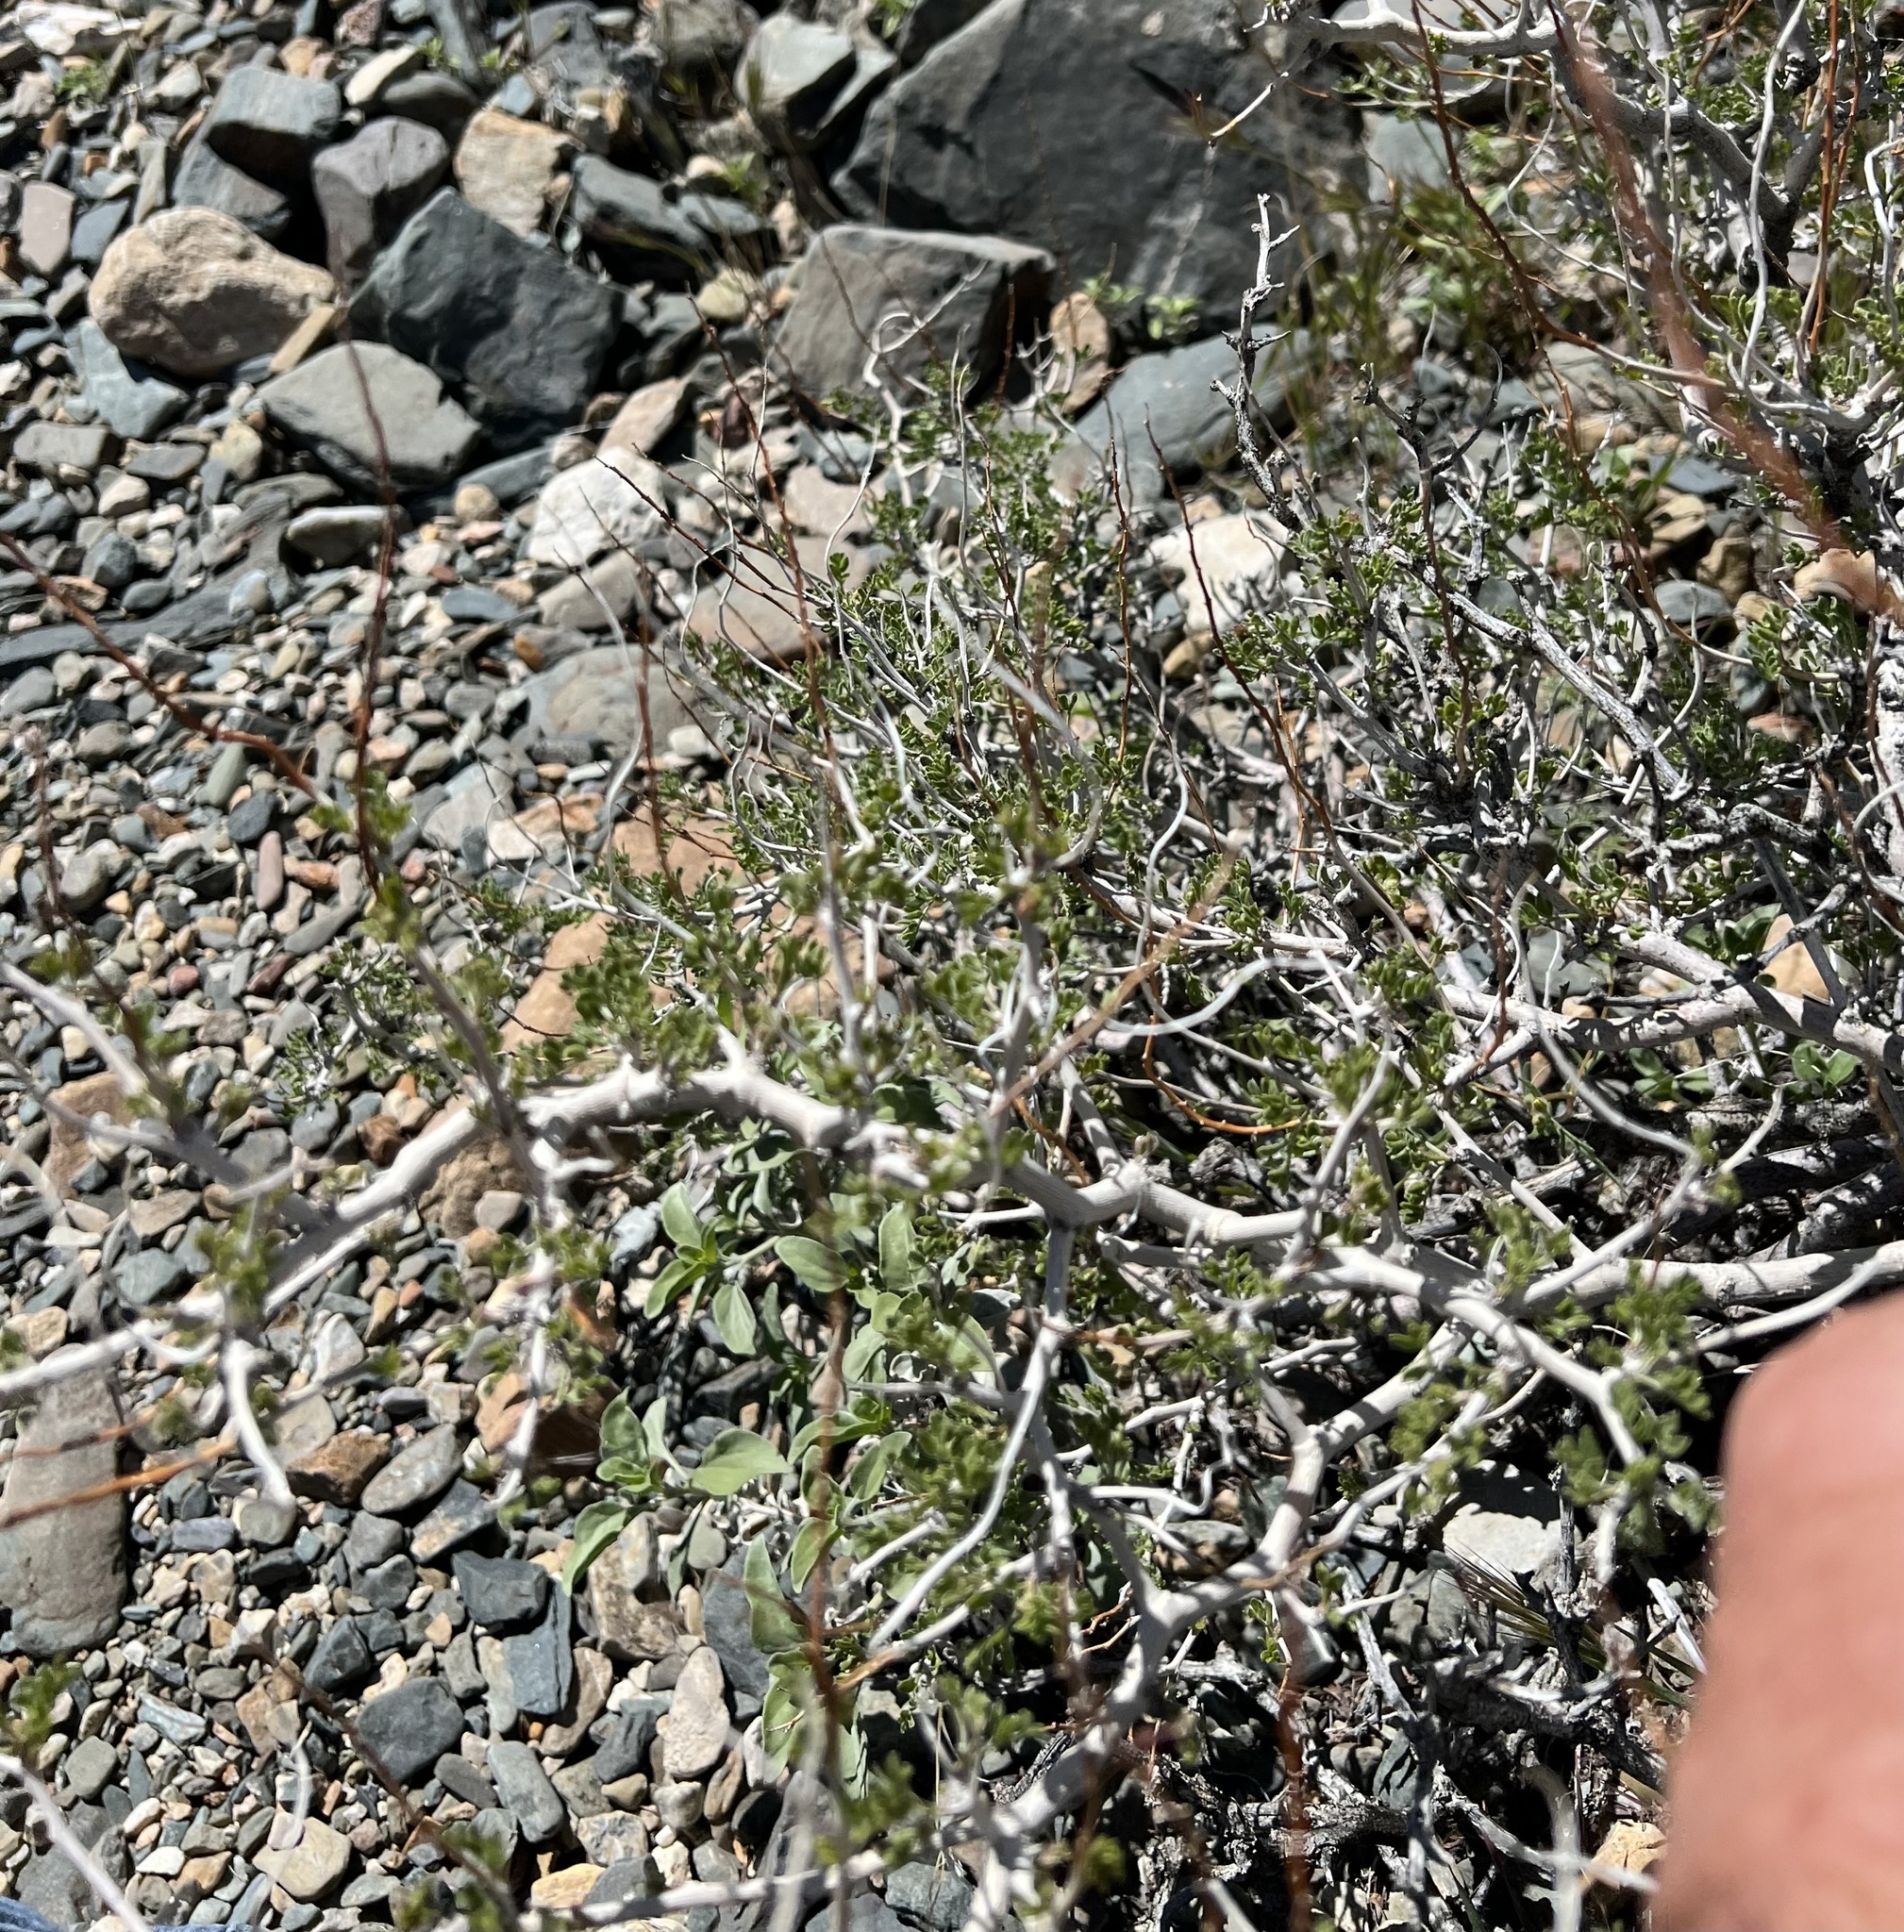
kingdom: Plantae
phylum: Tracheophyta
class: Magnoliopsida
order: Fabales
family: Fabaceae
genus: Psorothamnus
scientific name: Psorothamnus arborescens
